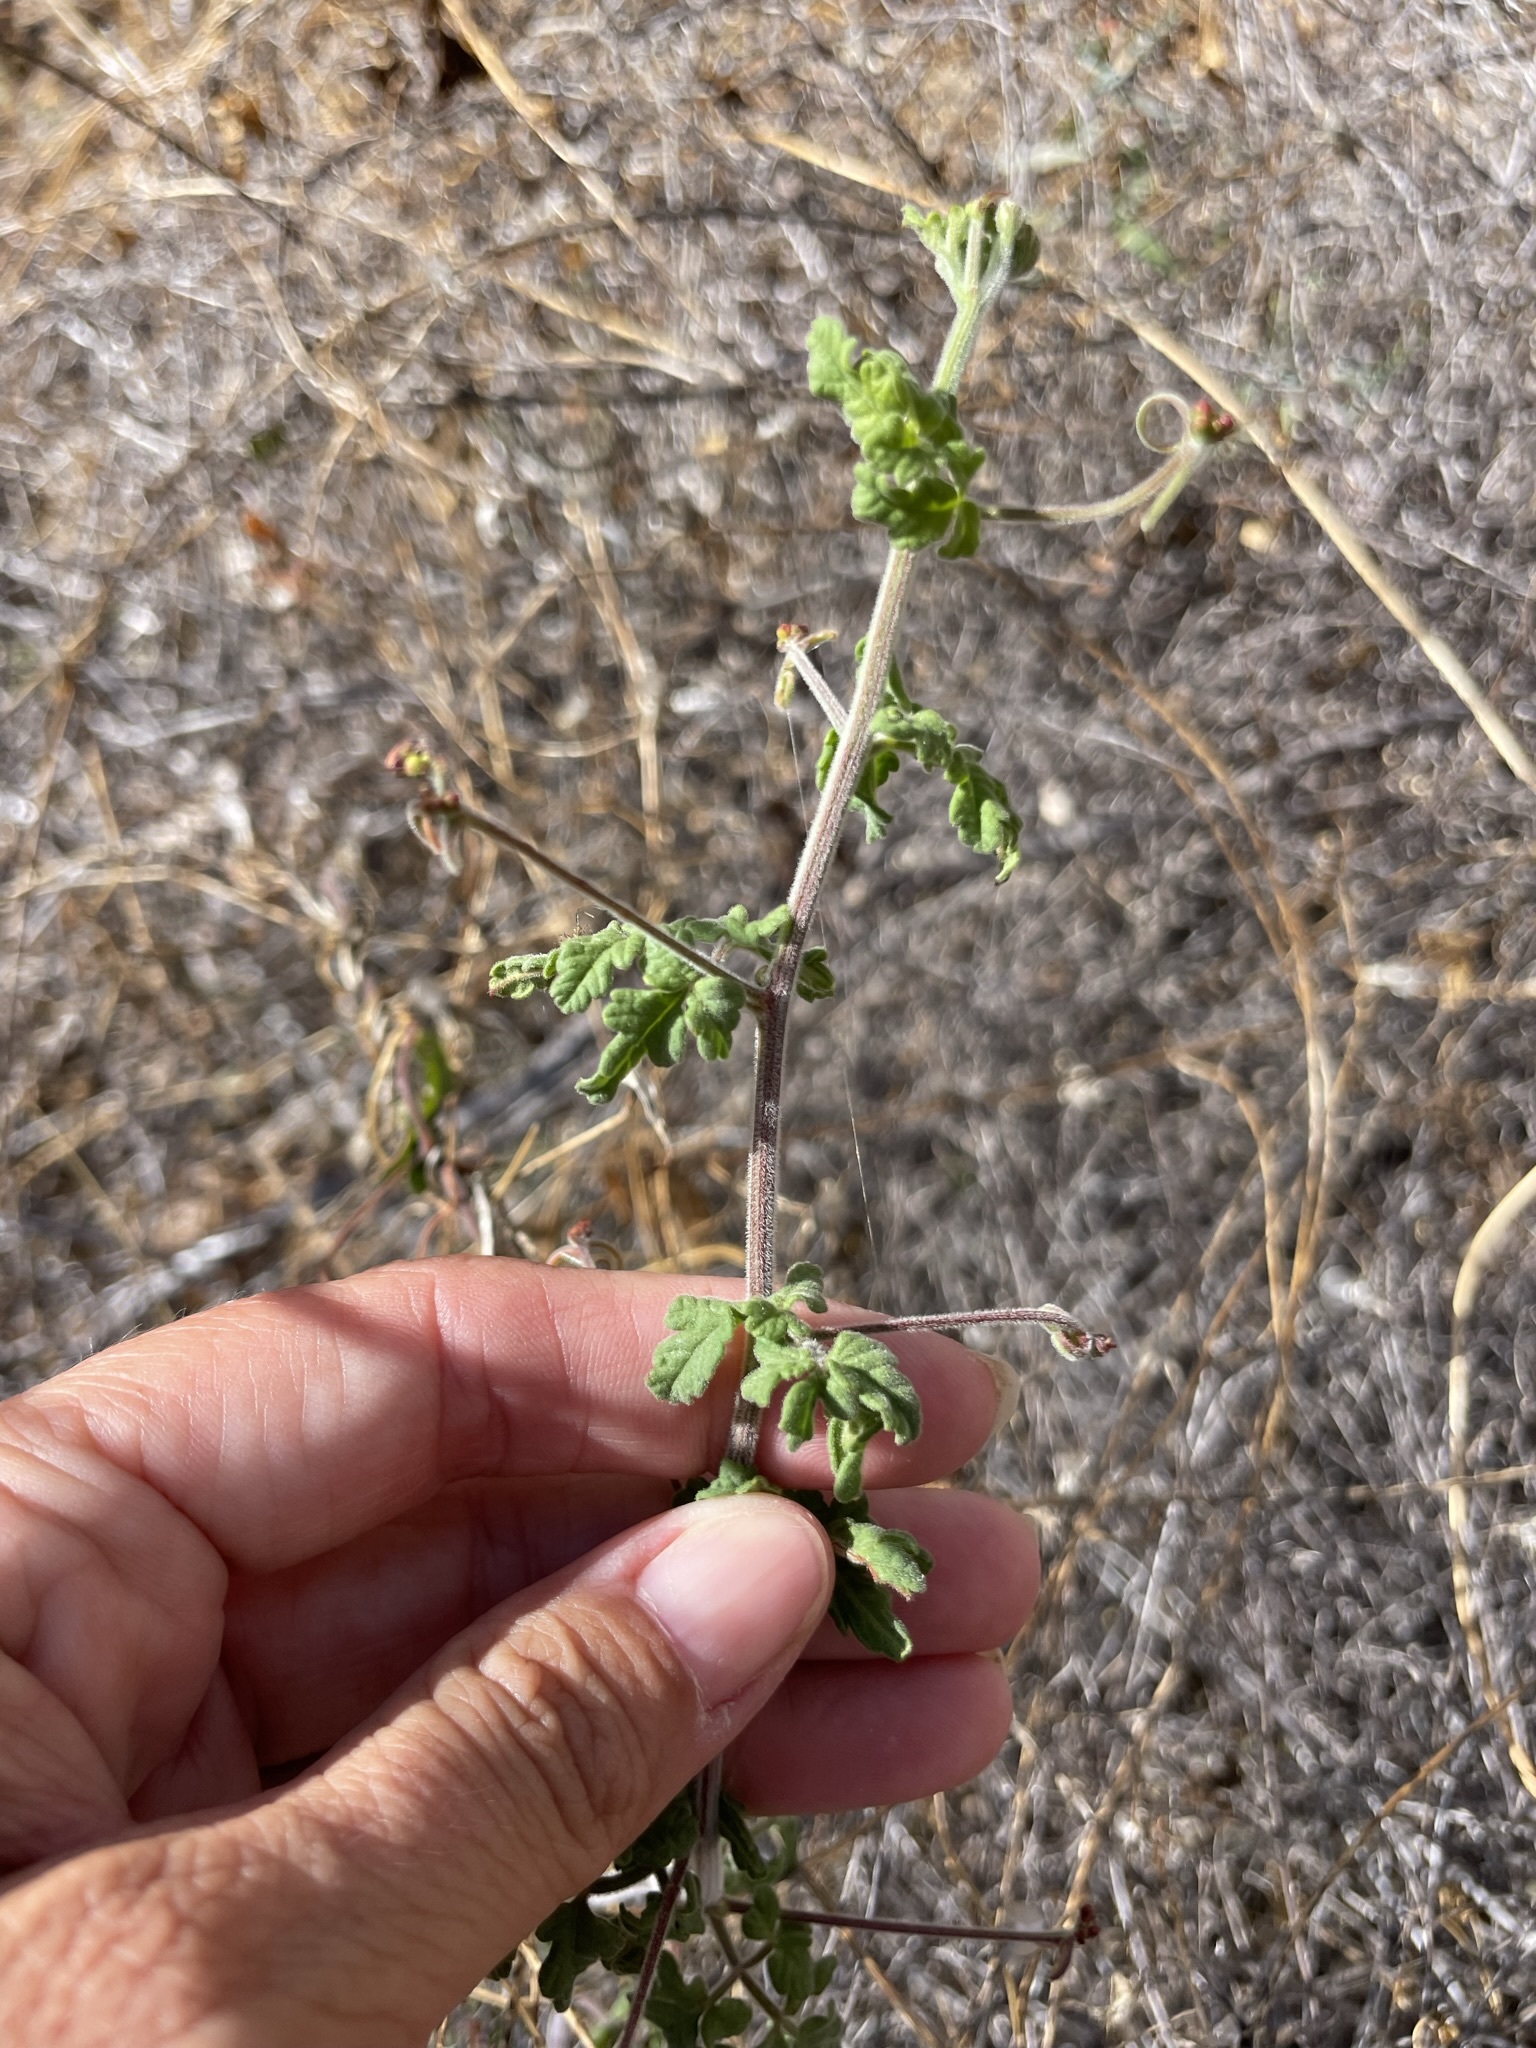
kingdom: Plantae
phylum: Tracheophyta
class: Magnoliopsida
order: Sapindales
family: Sapindaceae
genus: Cardiospermum
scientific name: Cardiospermum corindum
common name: Faux persil
